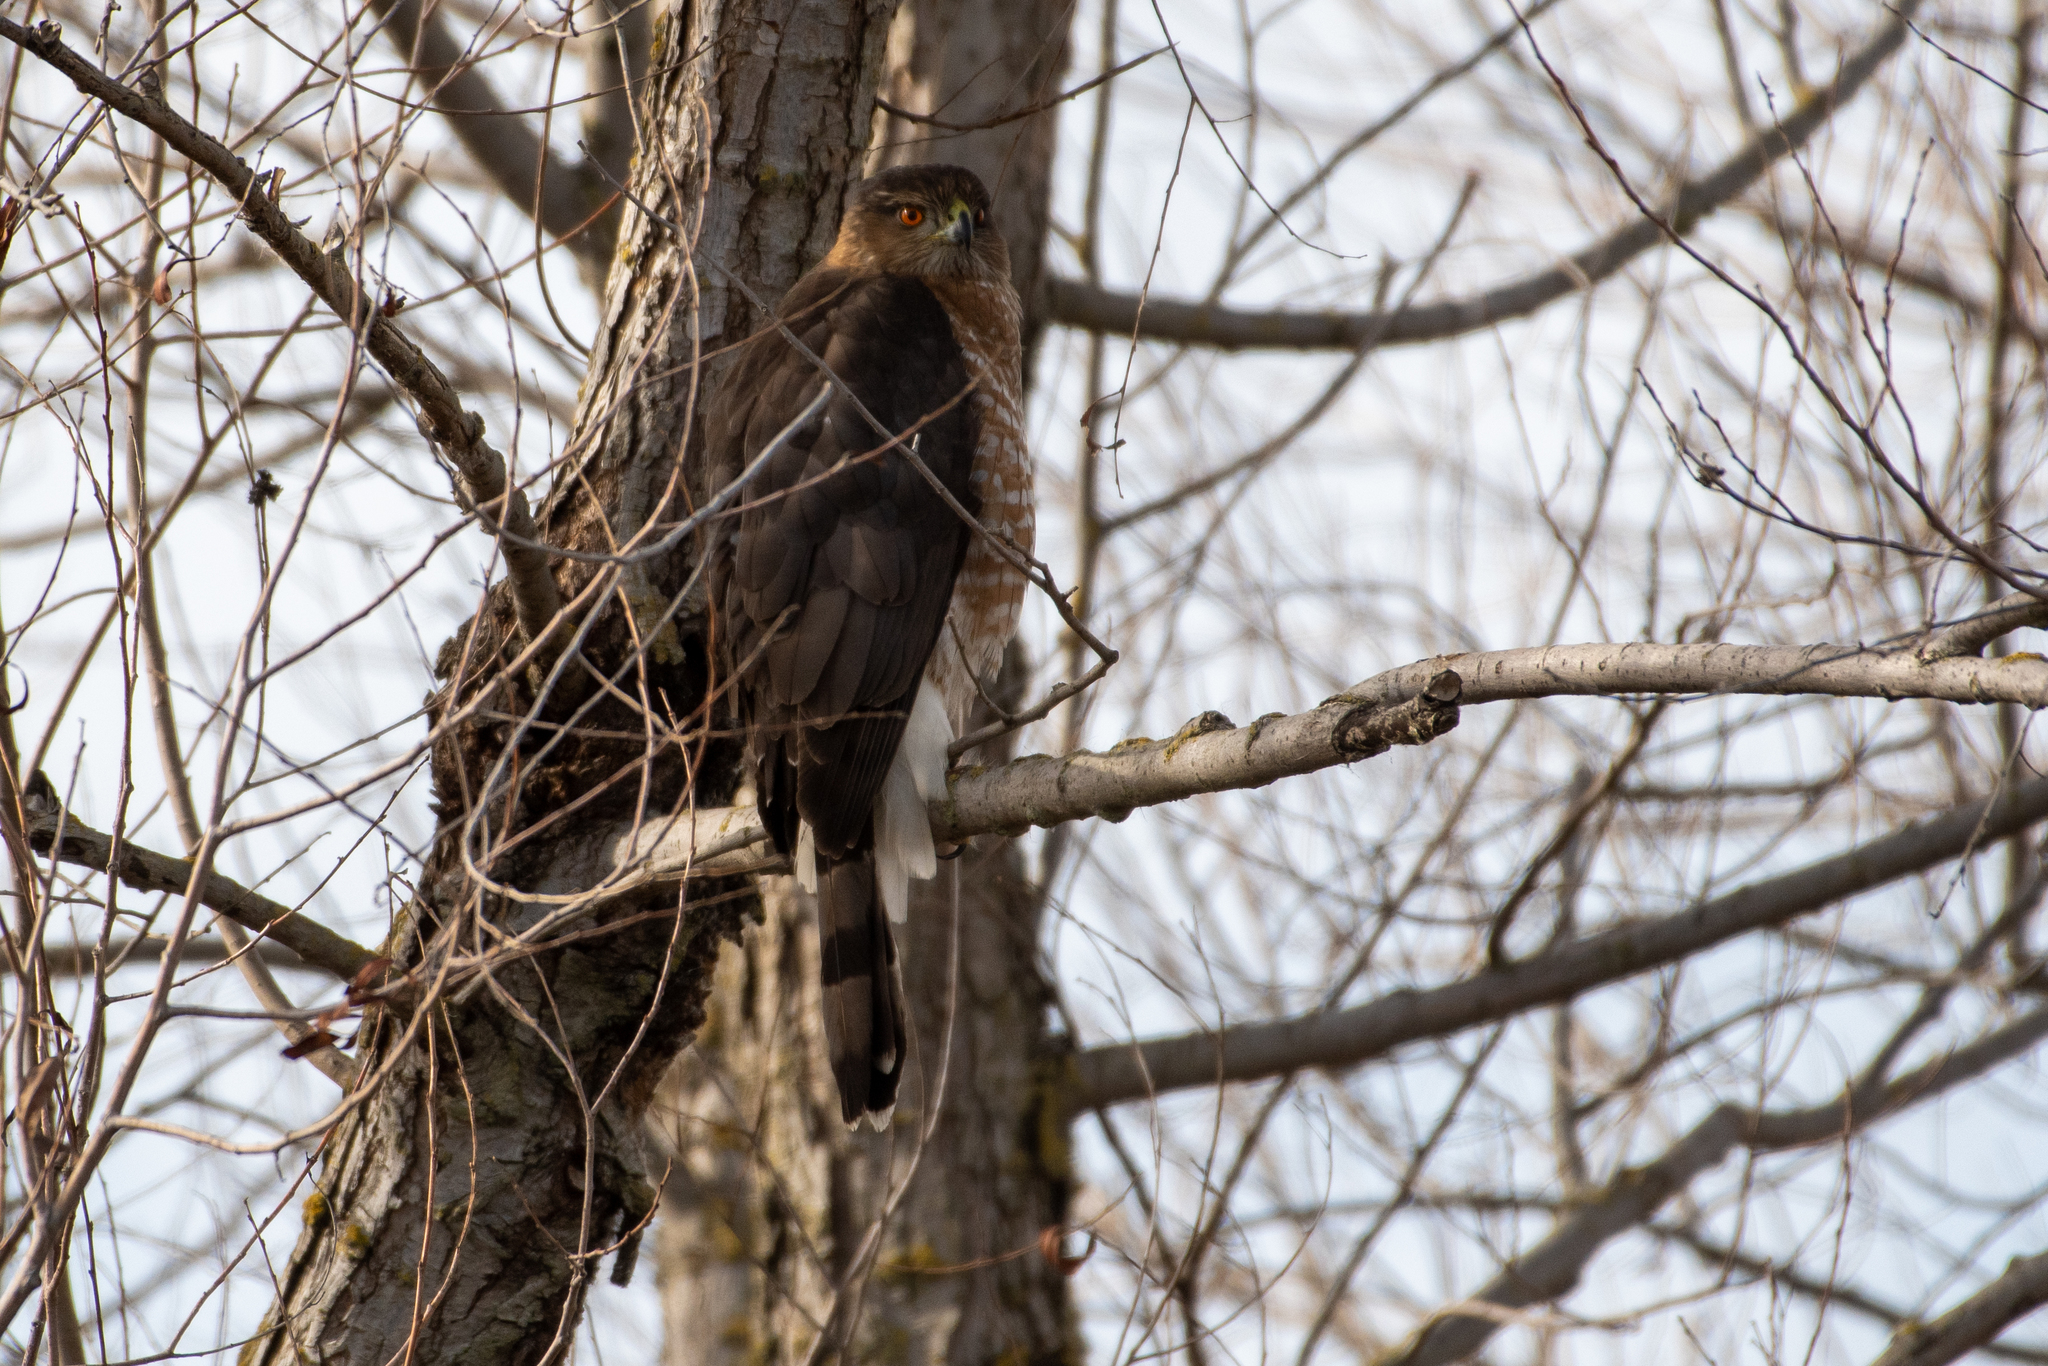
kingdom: Animalia
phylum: Chordata
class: Aves
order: Accipitriformes
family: Accipitridae
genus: Accipiter
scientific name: Accipiter cooperii
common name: Cooper's hawk
